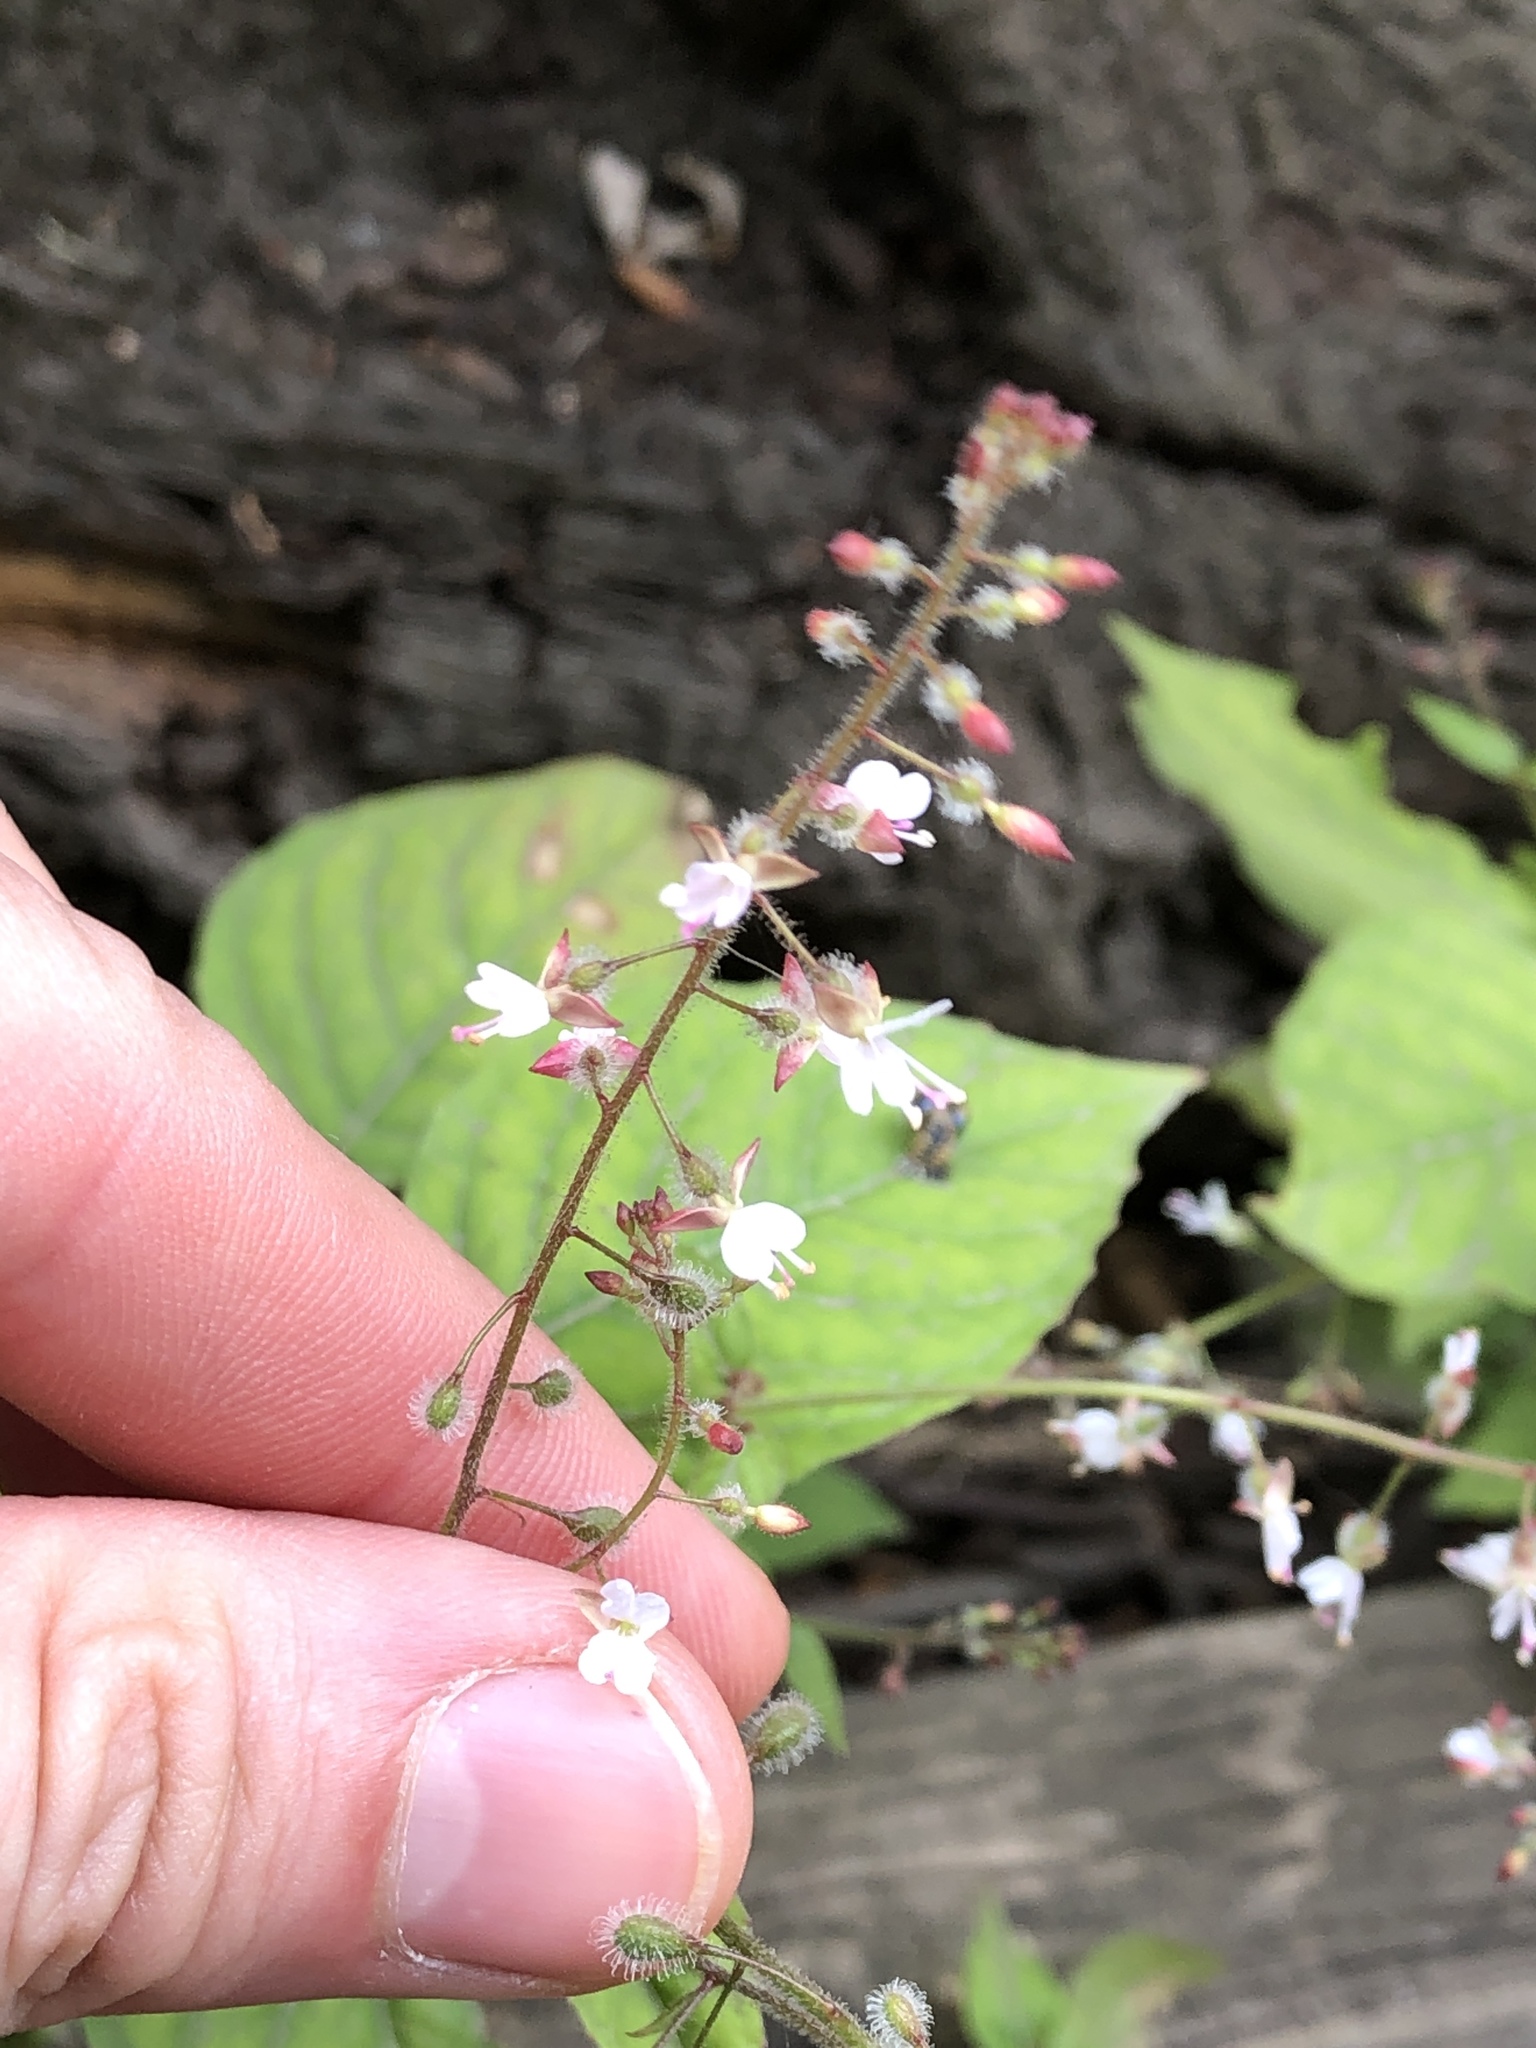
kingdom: Plantae
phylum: Tracheophyta
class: Magnoliopsida
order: Myrtales
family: Onagraceae
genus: Circaea
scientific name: Circaea lutetiana
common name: Enchanter's-nightshade
